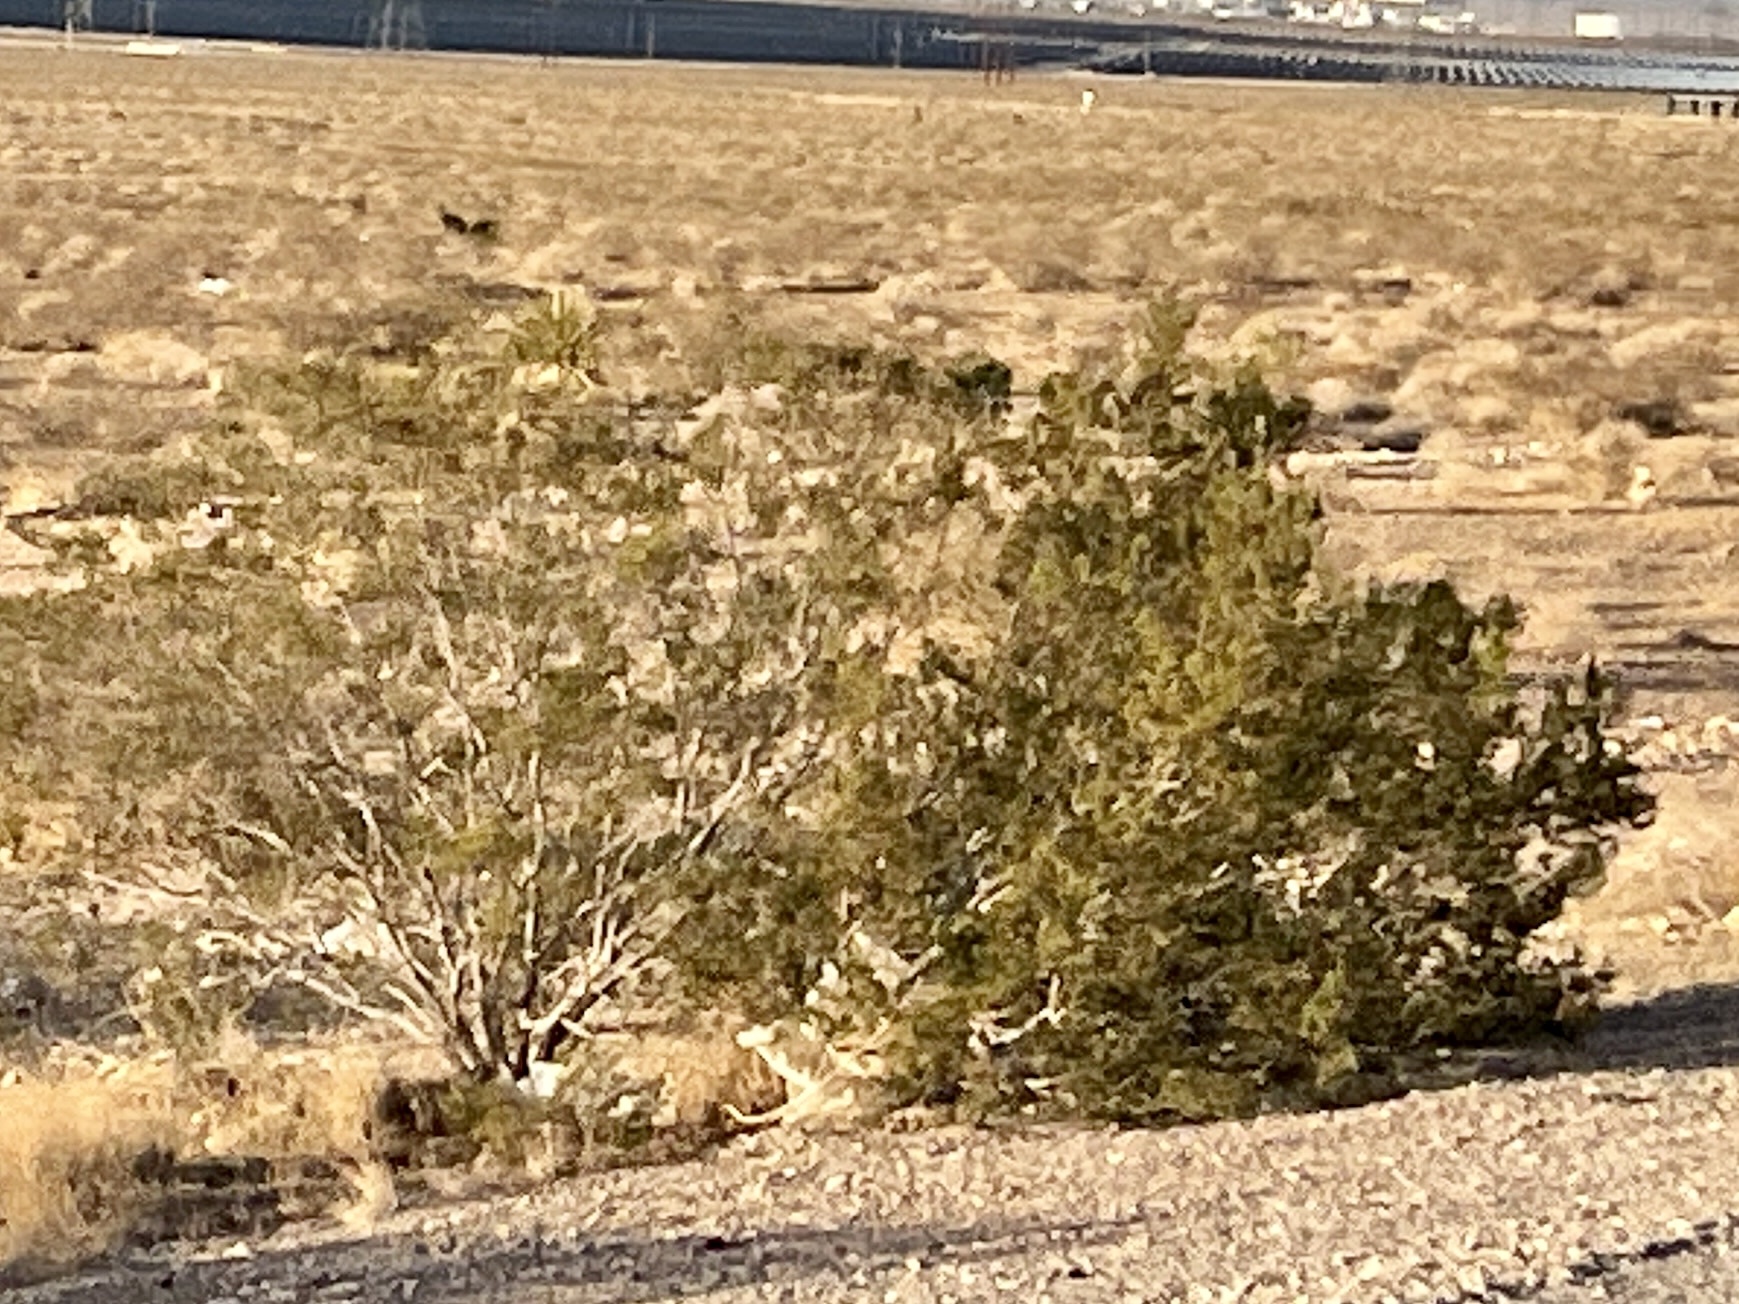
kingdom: Plantae
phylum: Tracheophyta
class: Magnoliopsida
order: Zygophyllales
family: Zygophyllaceae
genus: Larrea
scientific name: Larrea tridentata
